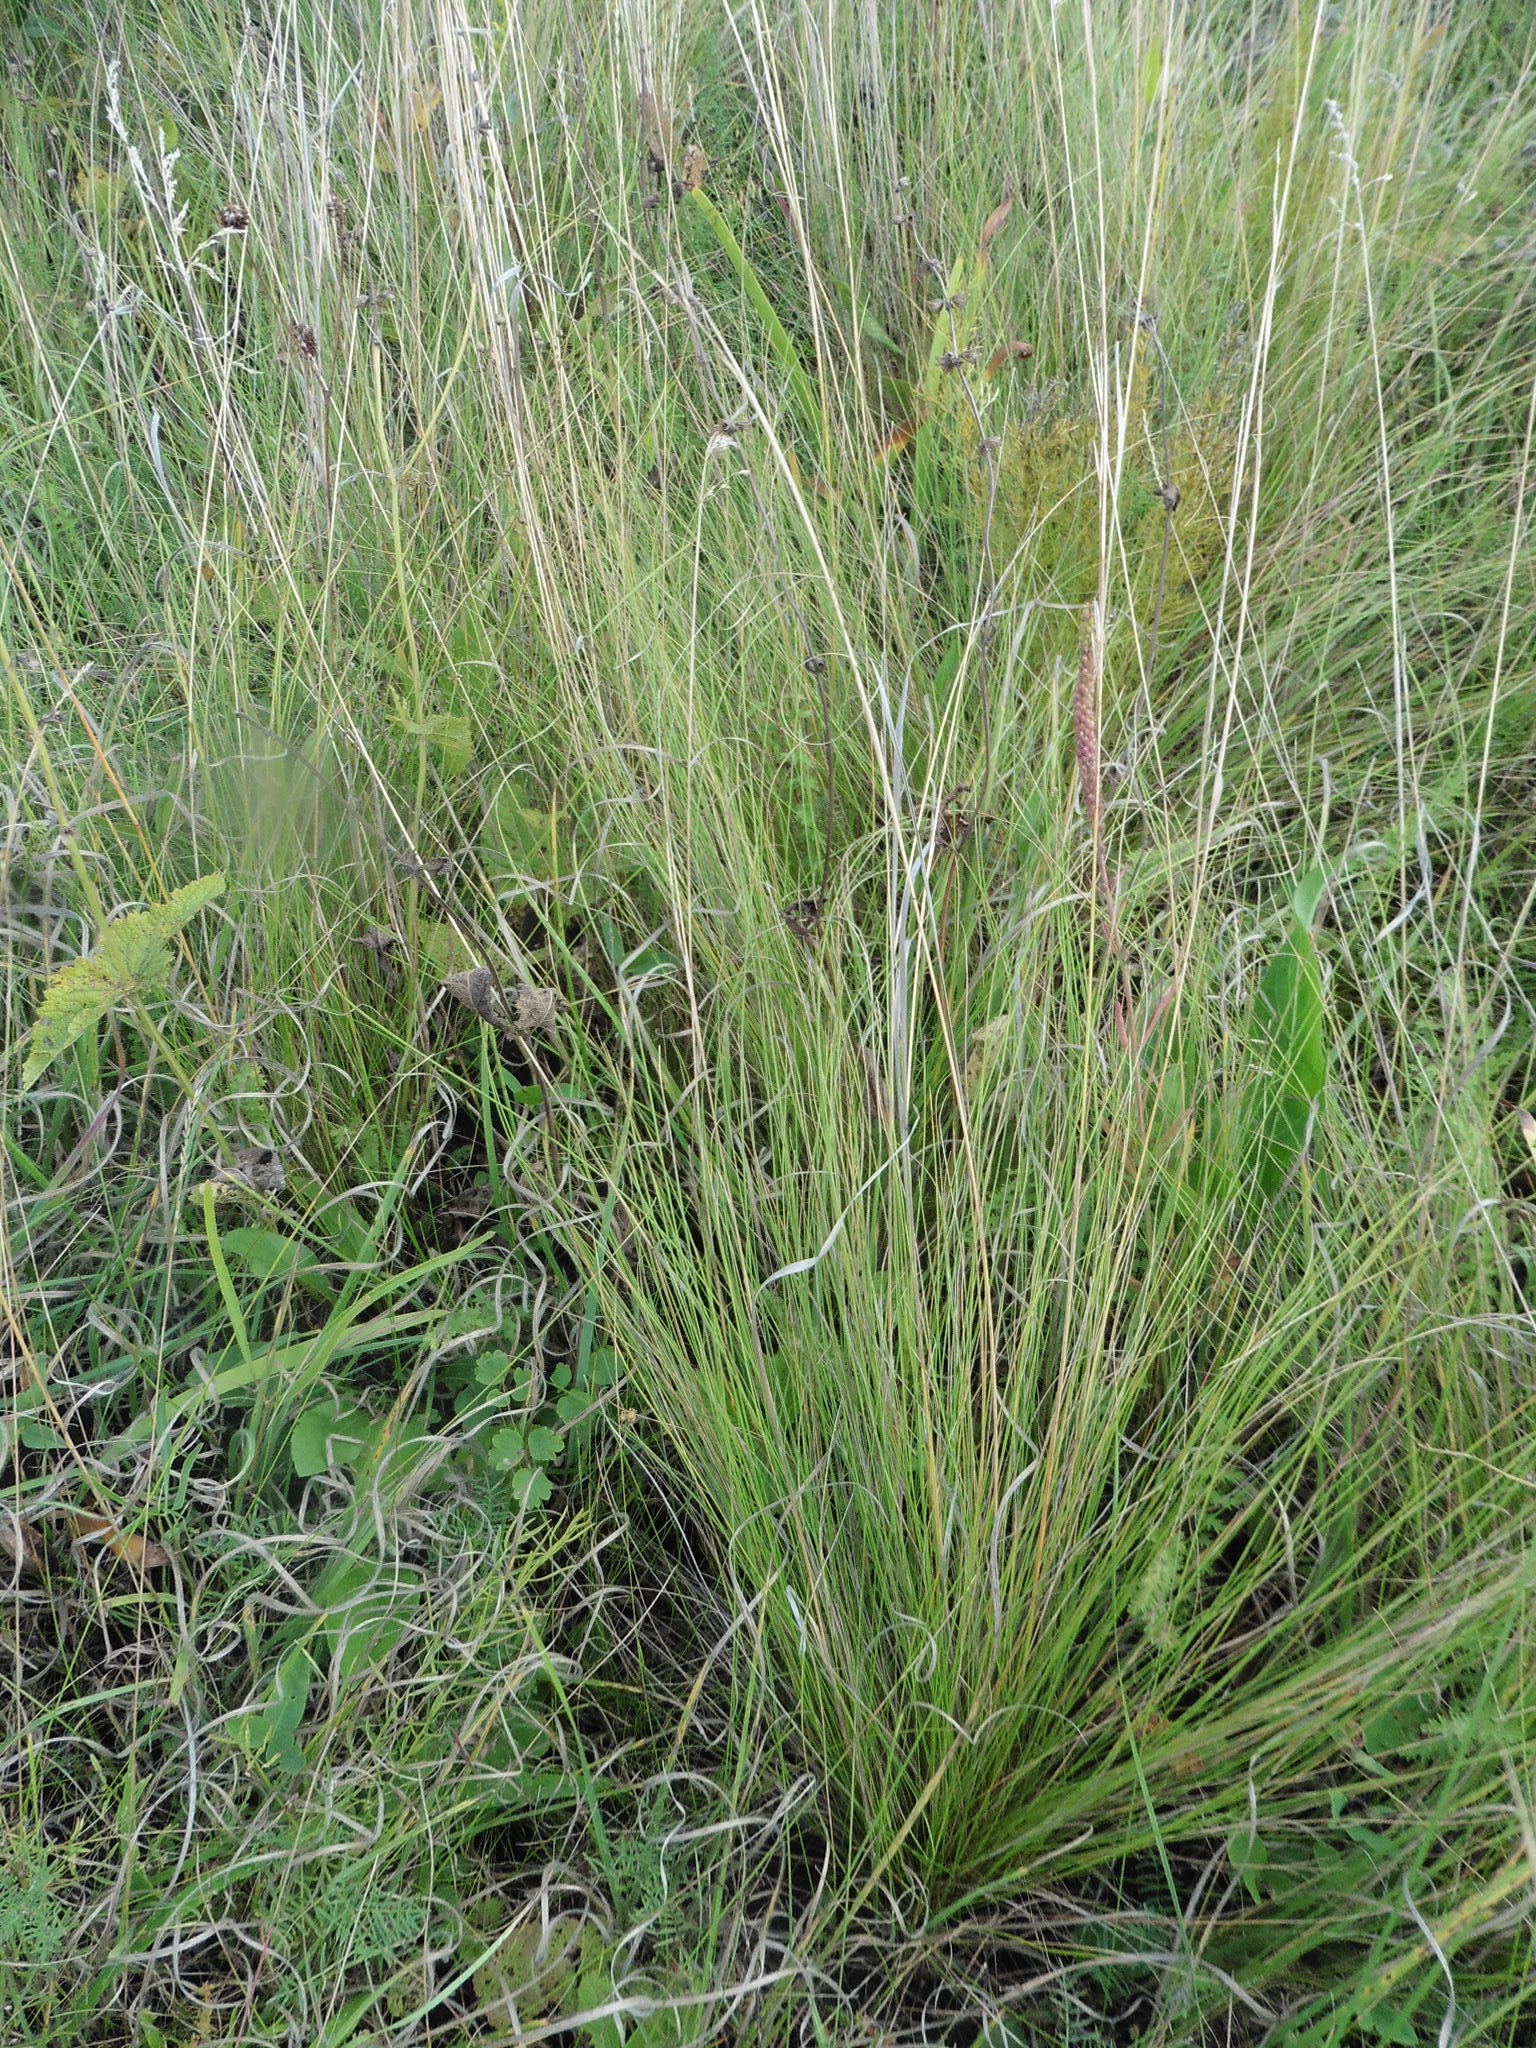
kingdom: Plantae
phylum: Tracheophyta
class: Liliopsida
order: Poales
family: Poaceae
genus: Stipa
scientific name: Stipa sareptana
